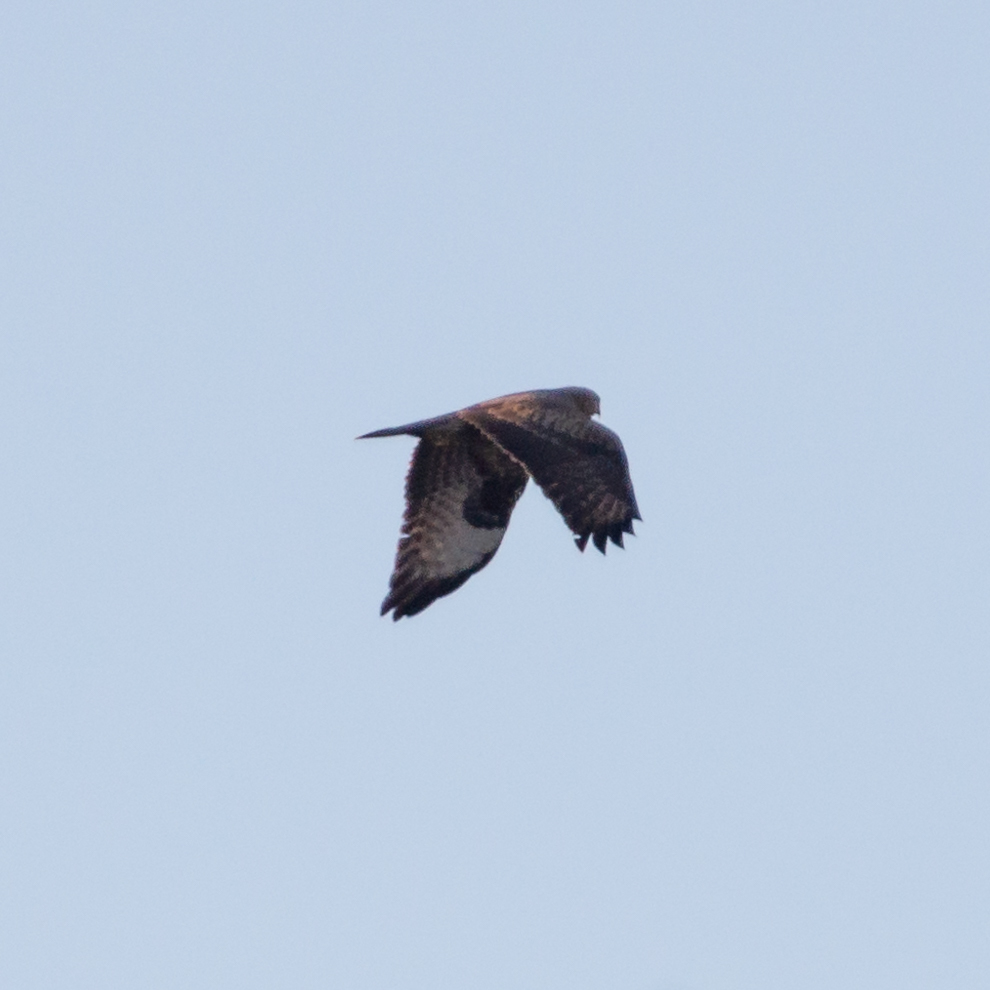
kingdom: Animalia
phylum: Chordata
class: Aves
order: Accipitriformes
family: Accipitridae
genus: Buteo
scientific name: Buteo buteo
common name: Common buzzard
